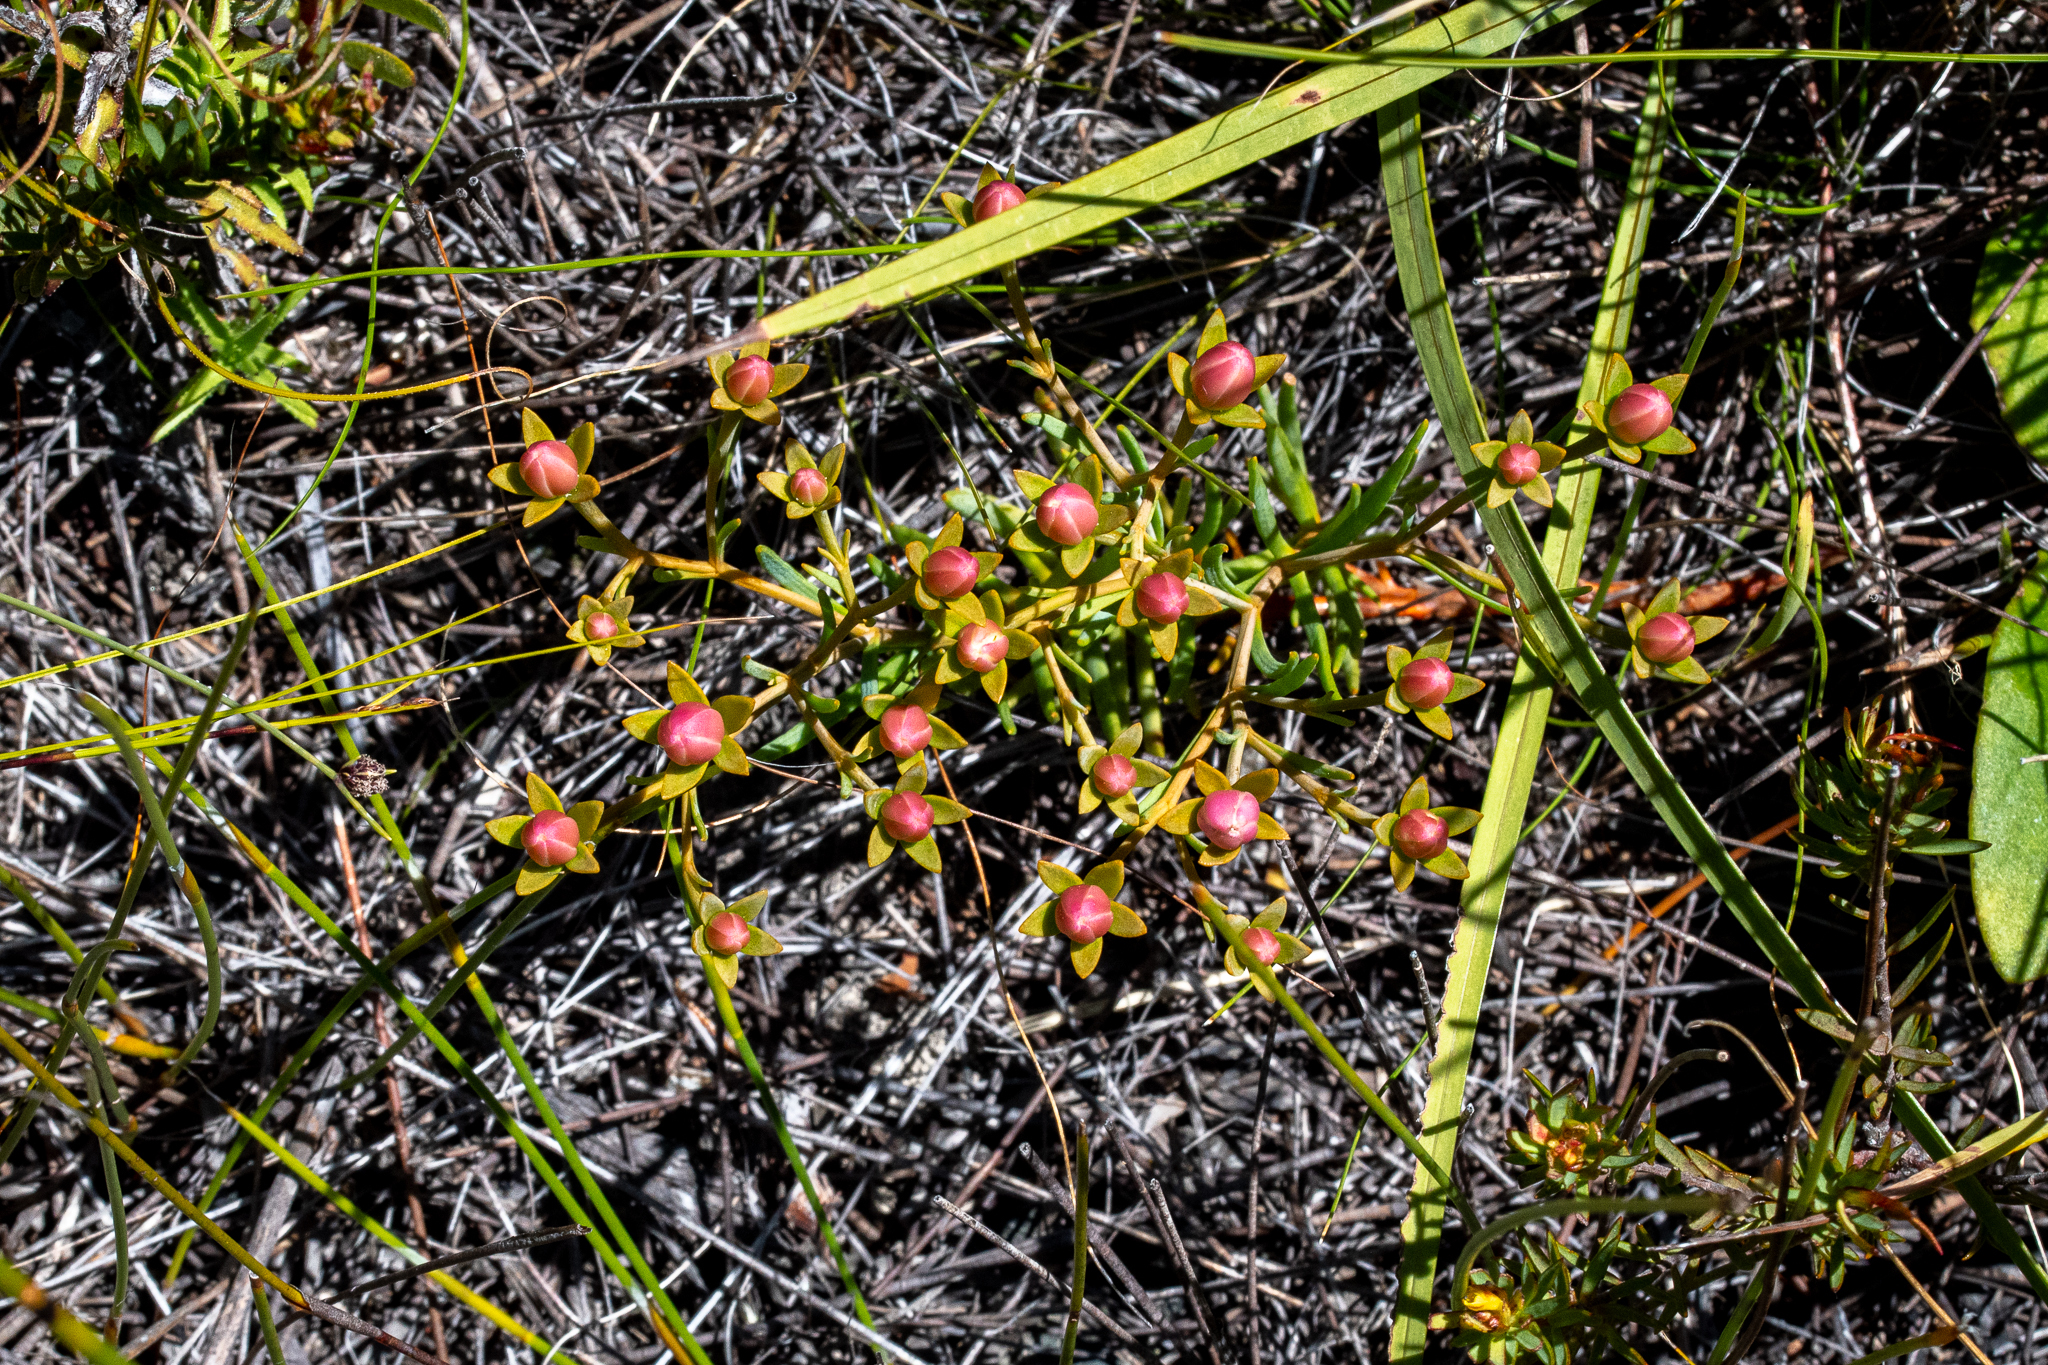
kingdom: Plantae
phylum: Tracheophyta
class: Magnoliopsida
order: Gentianales
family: Gentianaceae
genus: Chironia
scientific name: Chironia linoides
